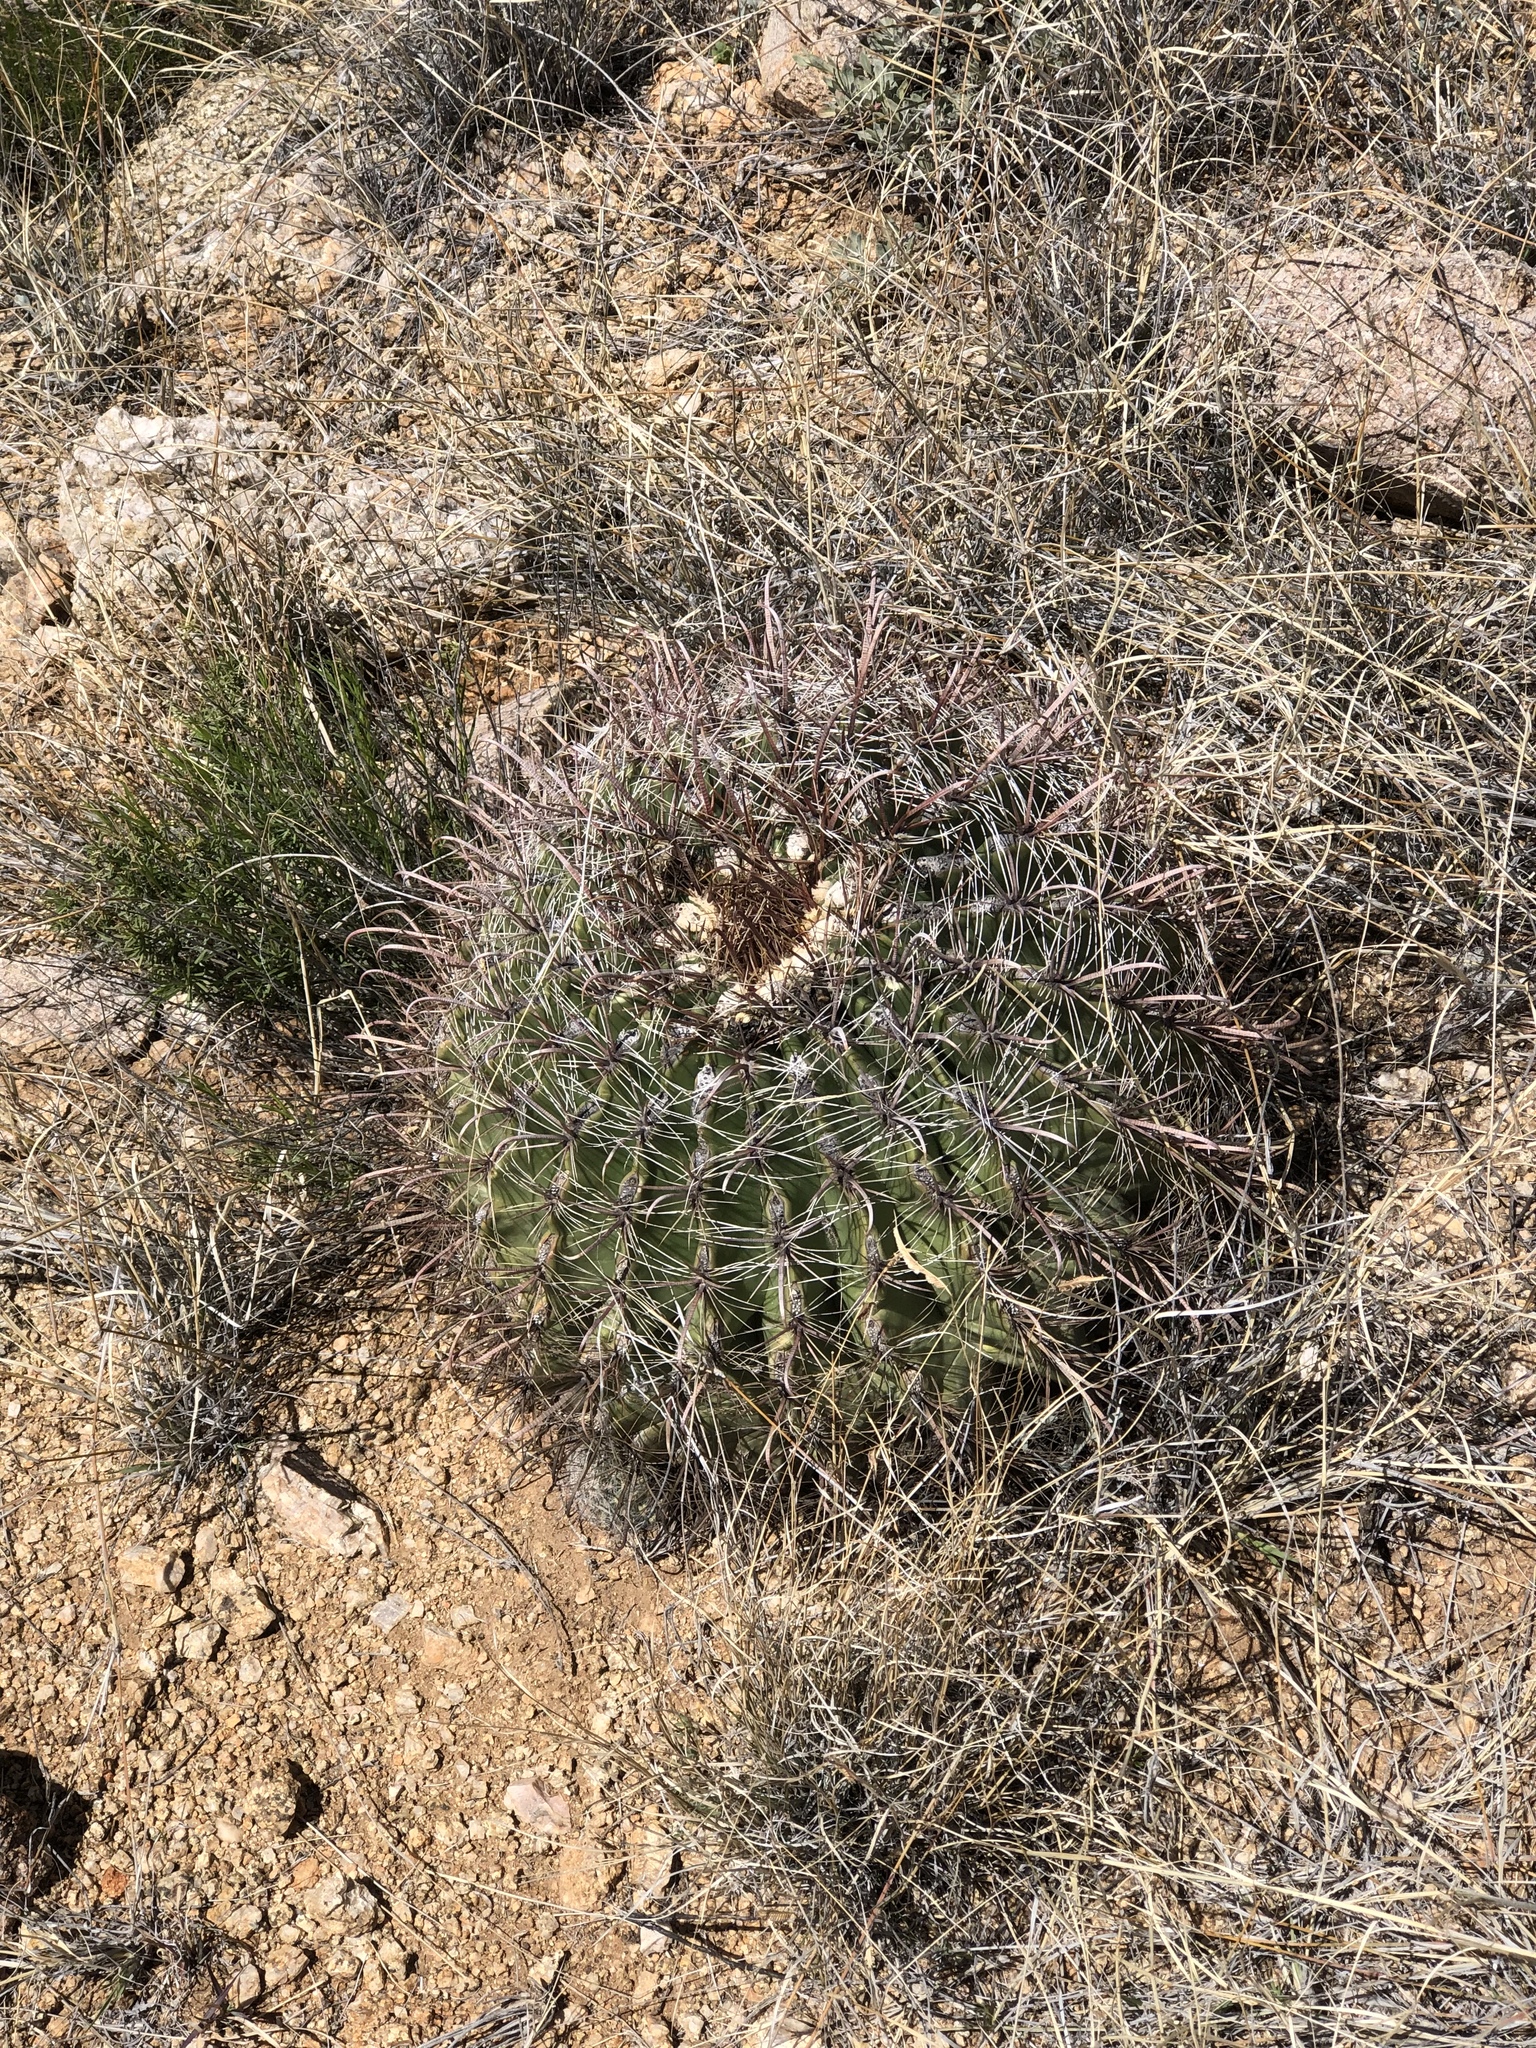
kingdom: Plantae
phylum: Tracheophyta
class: Magnoliopsida
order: Caryophyllales
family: Cactaceae
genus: Ferocactus
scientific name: Ferocactus wislizeni
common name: Candy barrel cactus
